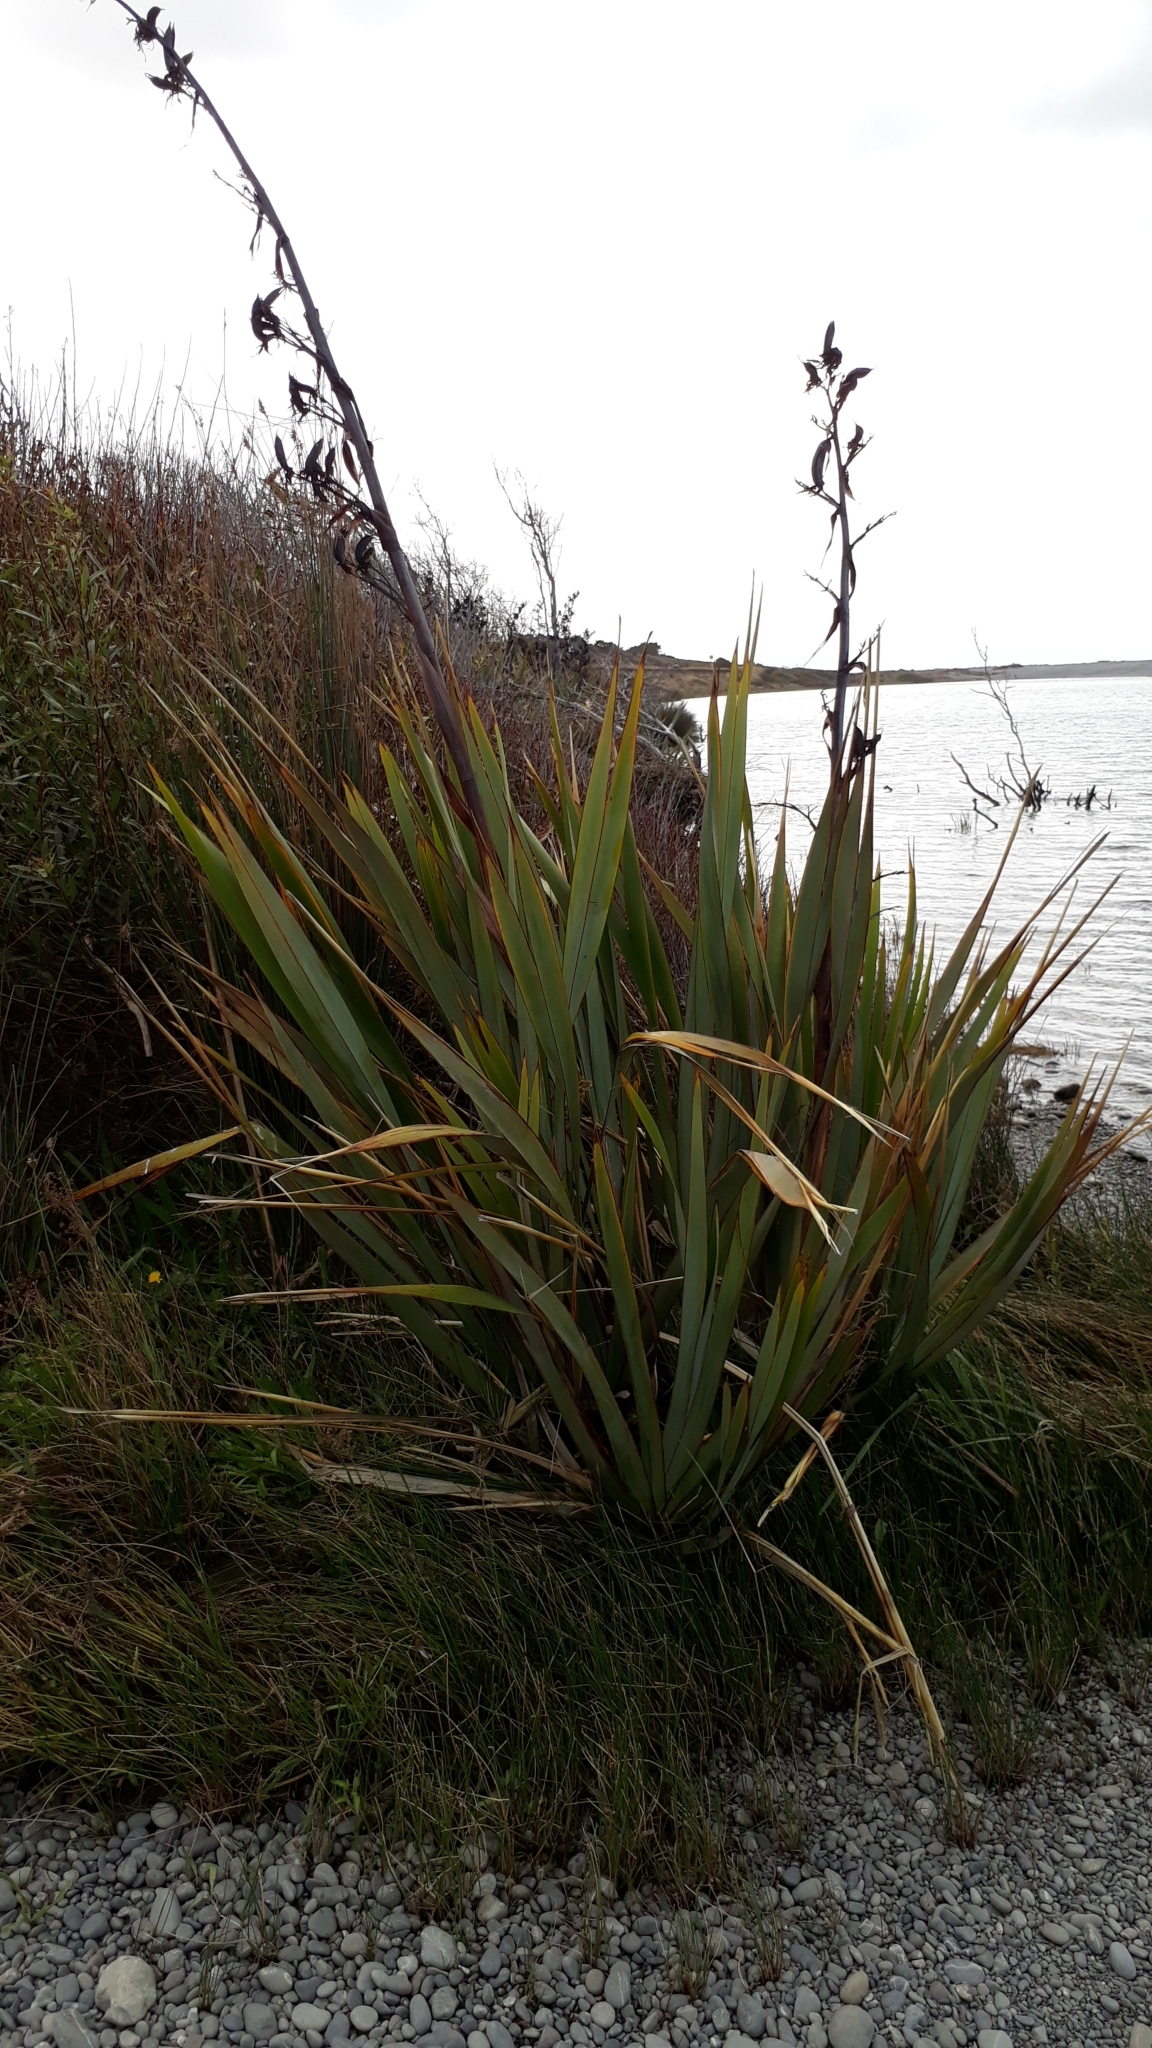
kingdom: Plantae
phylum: Tracheophyta
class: Liliopsida
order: Asparagales
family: Asphodelaceae
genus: Phormium
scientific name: Phormium tenax
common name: New zealand flax
